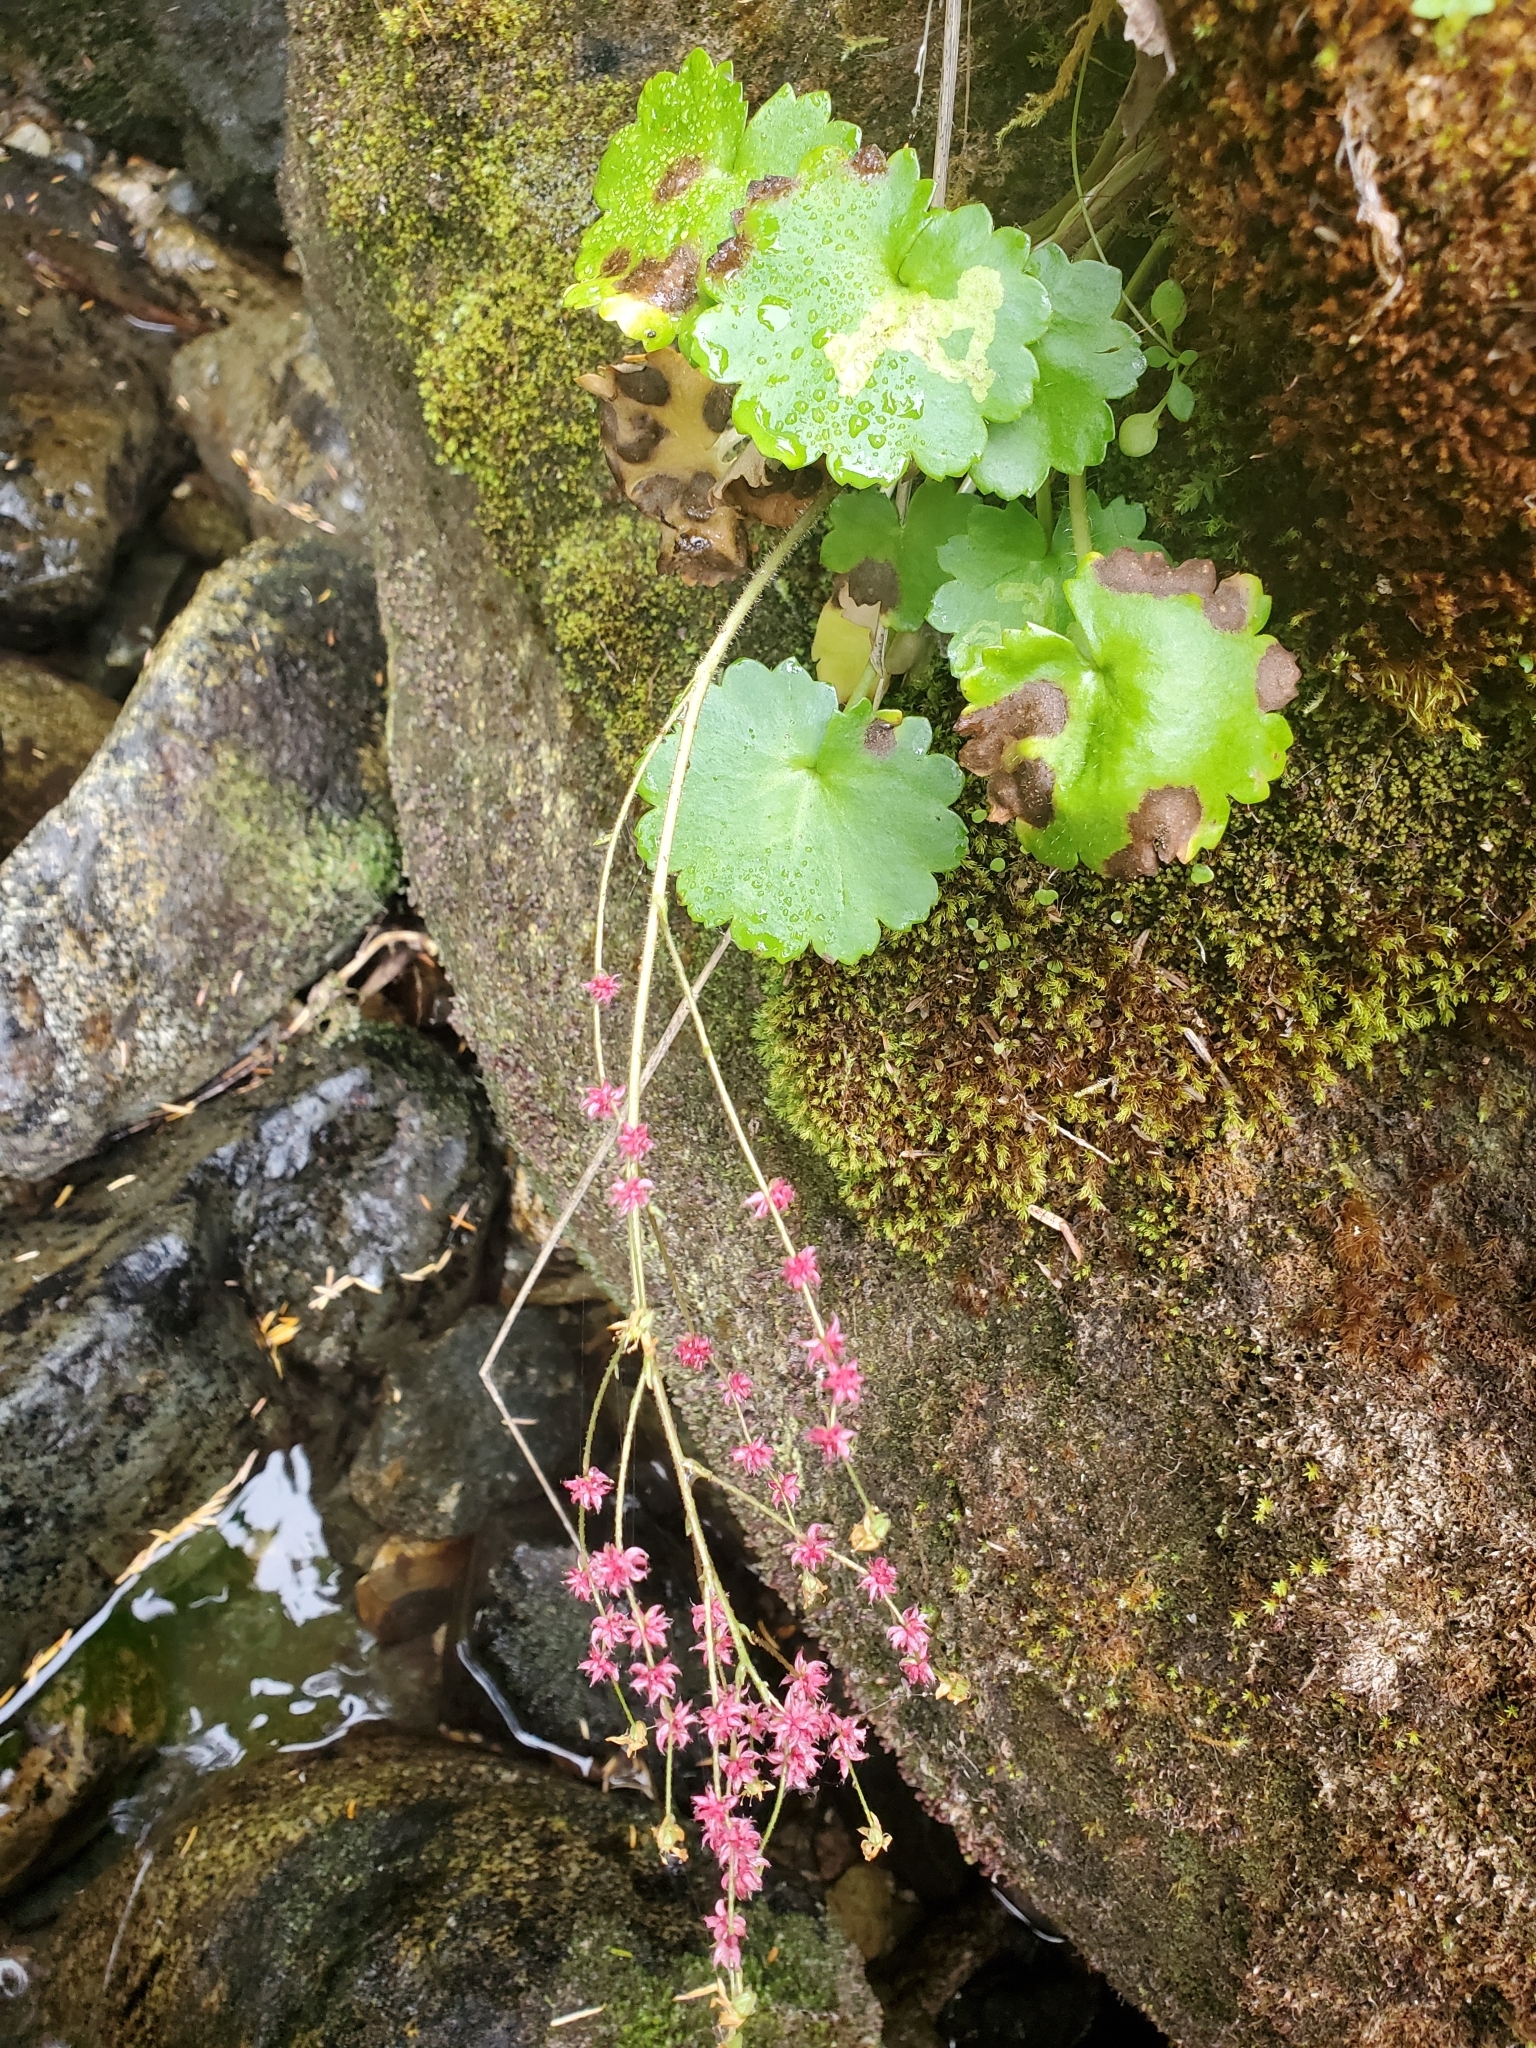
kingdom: Plantae
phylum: Tracheophyta
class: Magnoliopsida
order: Saxifragales
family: Saxifragaceae
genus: Micranthes
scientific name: Micranthes mertensiana
